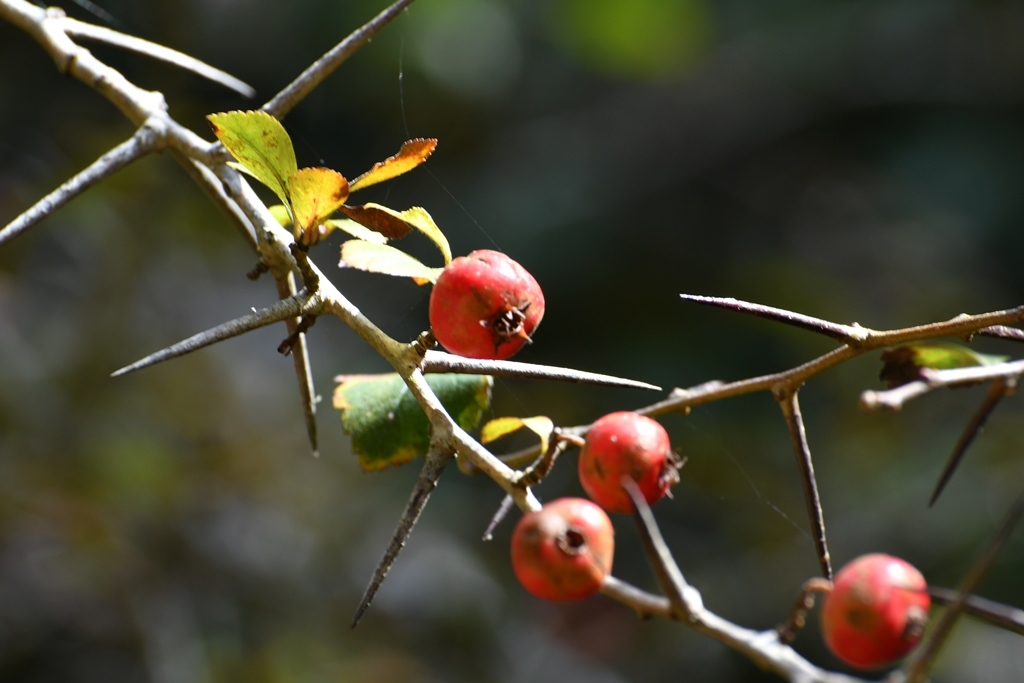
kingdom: Plantae
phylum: Tracheophyta
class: Magnoliopsida
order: Rosales
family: Rosaceae
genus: Crataegus
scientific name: Crataegus lindenii
